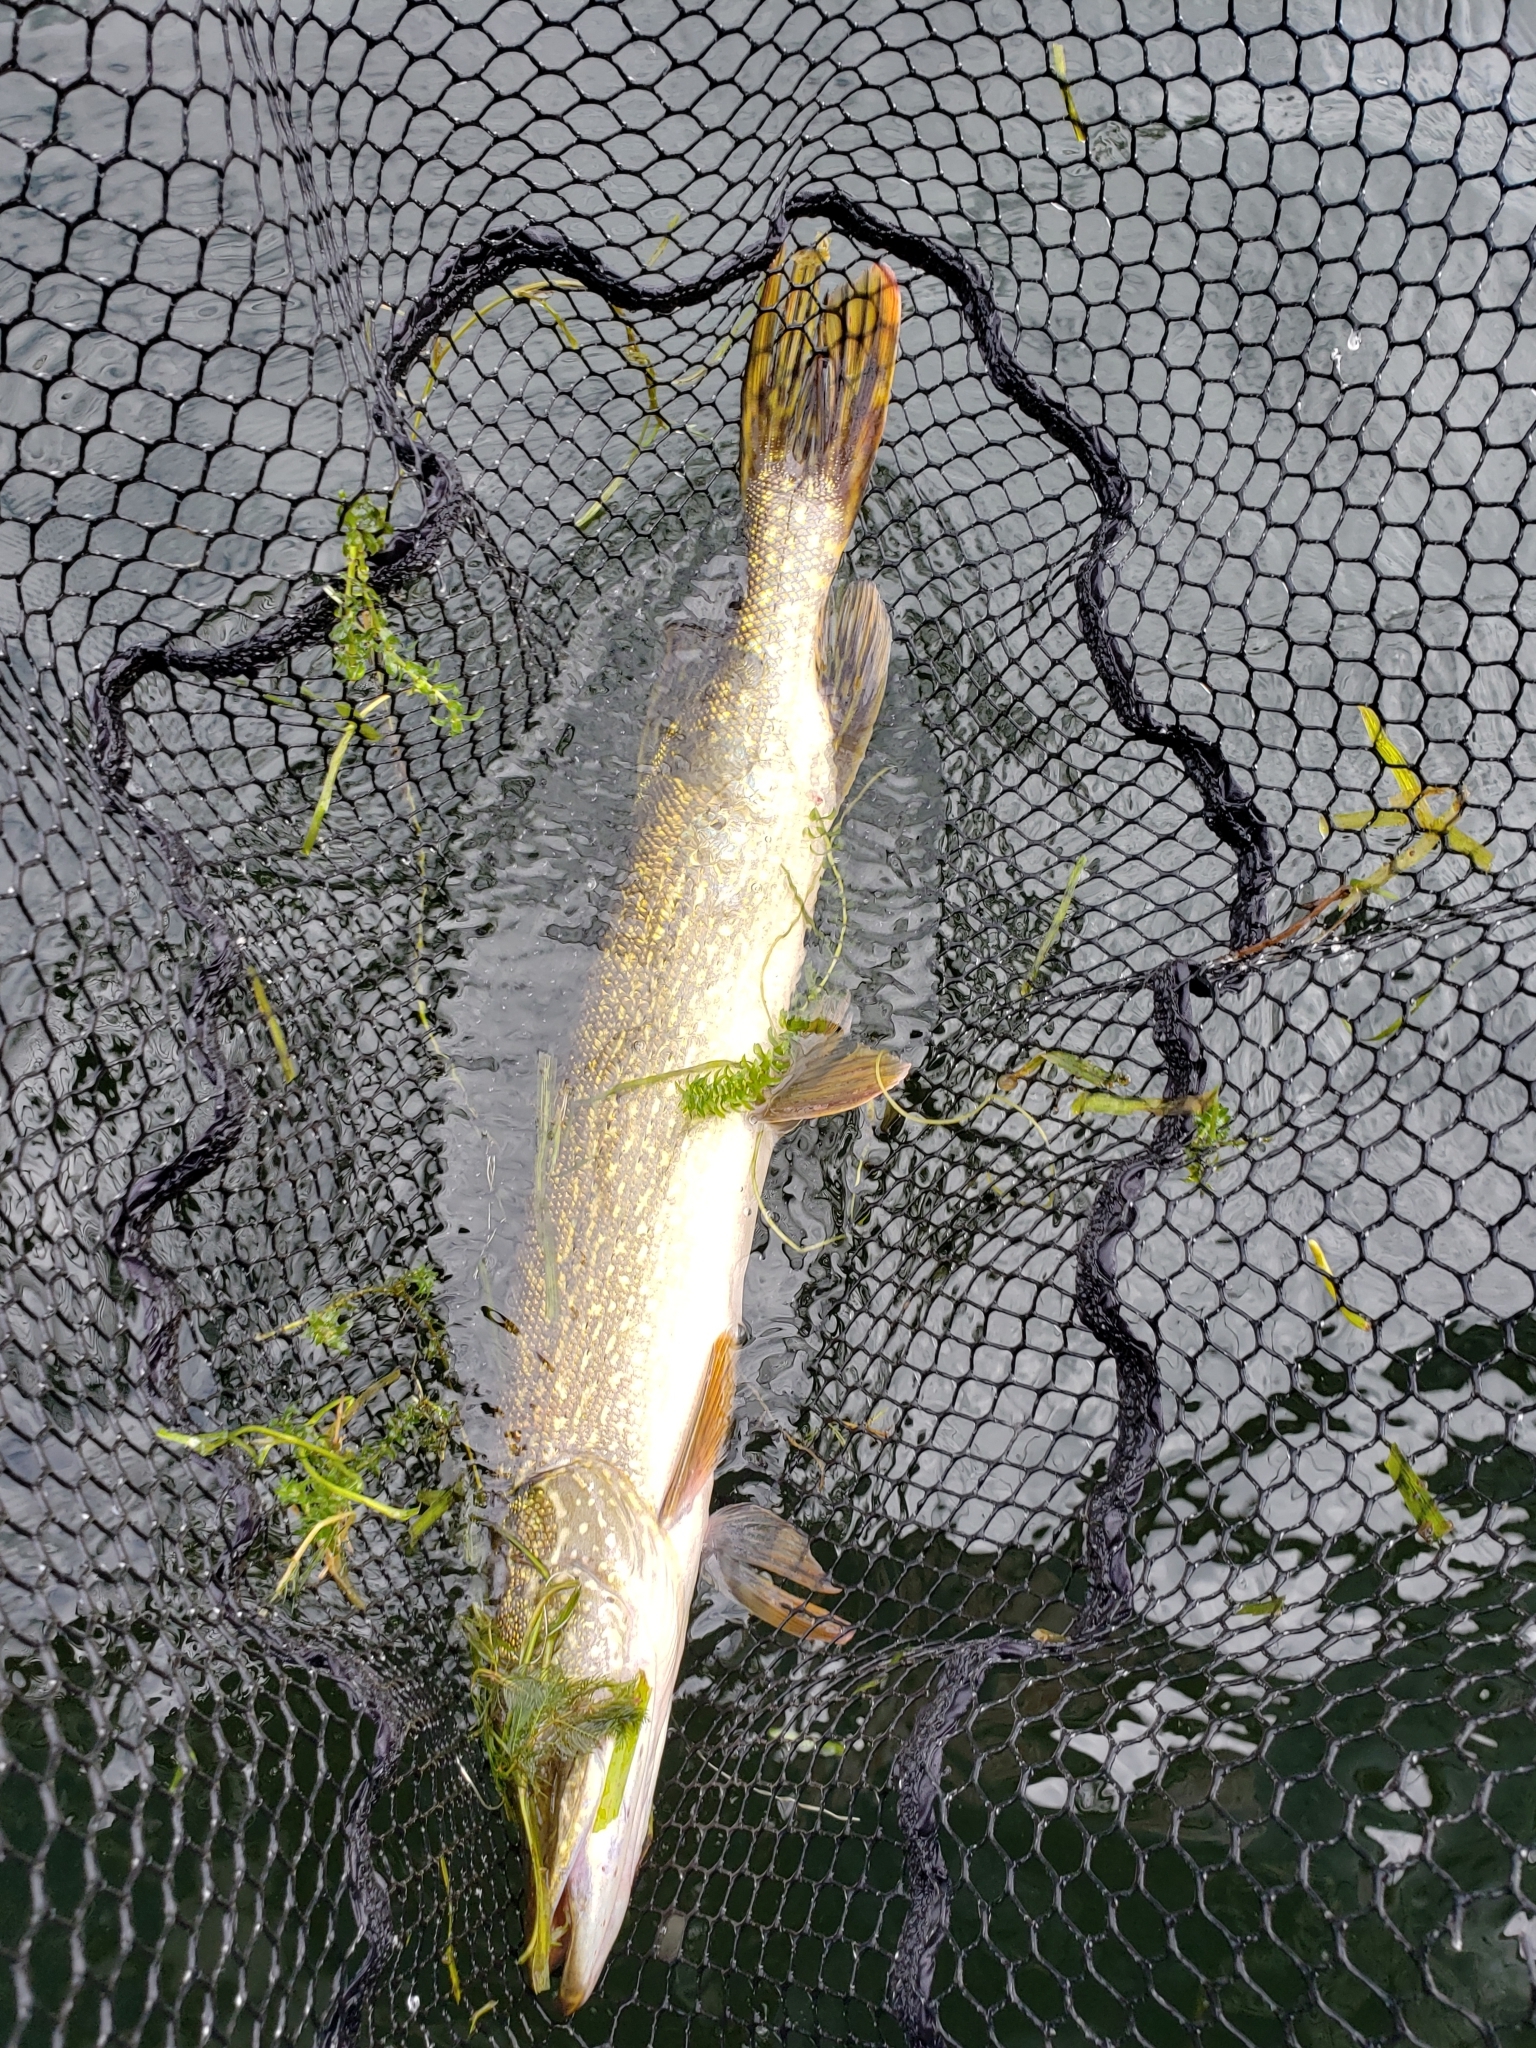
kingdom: Animalia
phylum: Chordata
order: Esociformes
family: Esocidae
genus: Esox
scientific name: Esox lucius
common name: Northern pike
